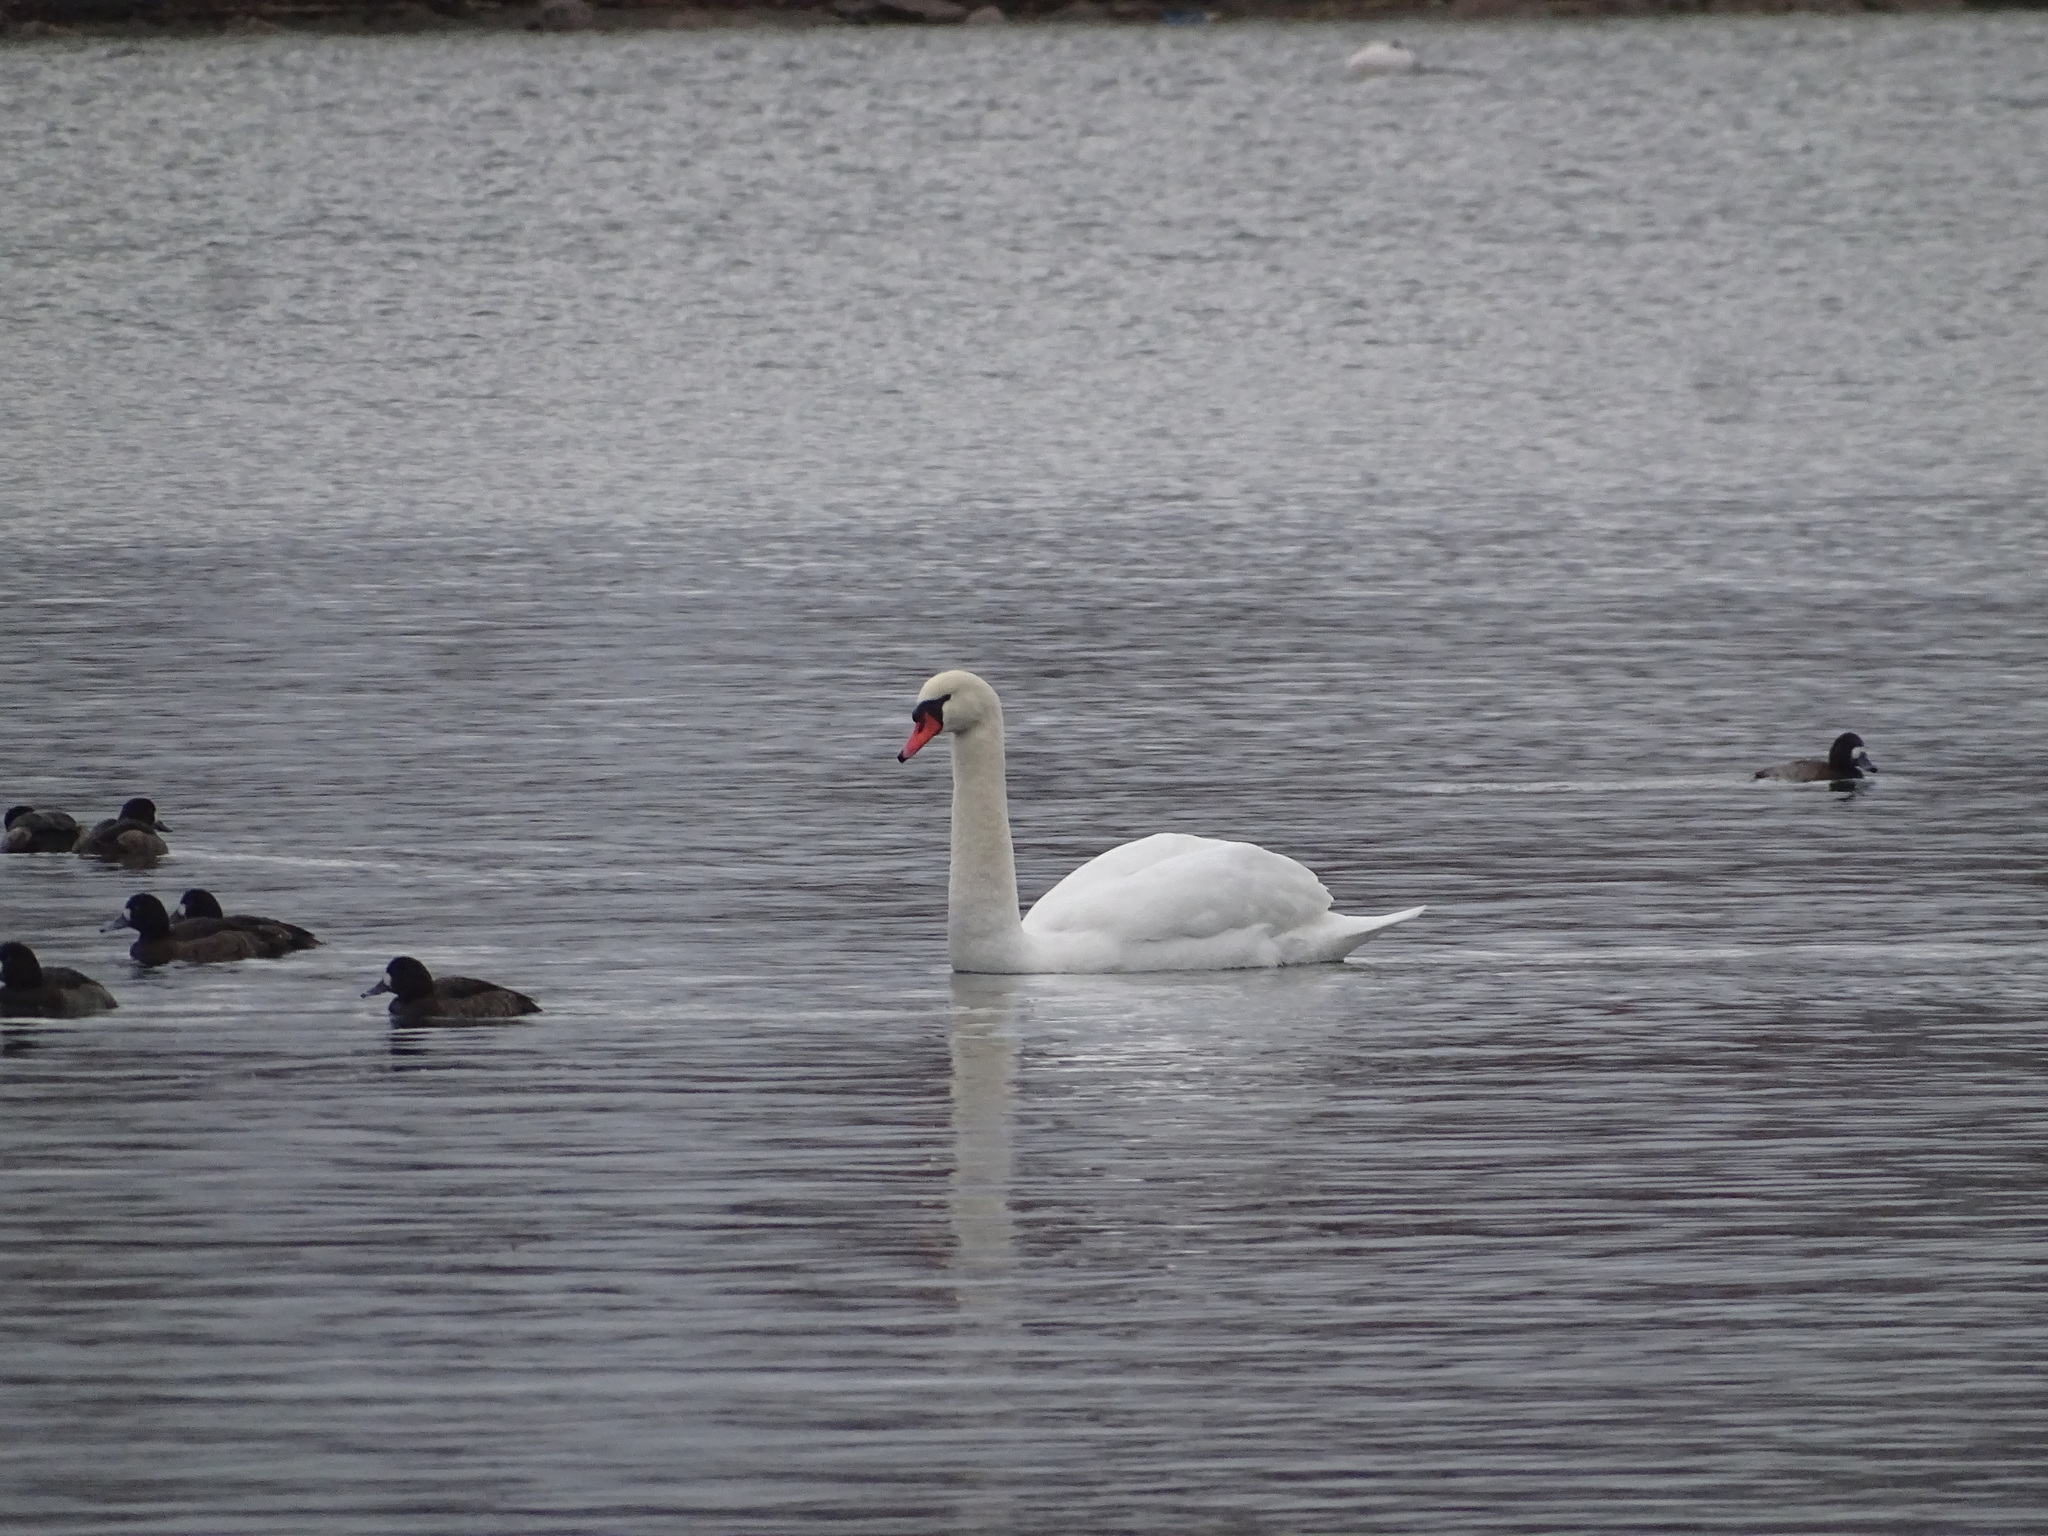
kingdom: Animalia
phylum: Chordata
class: Aves
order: Anseriformes
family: Anatidae
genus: Cygnus
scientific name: Cygnus olor
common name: Mute swan
